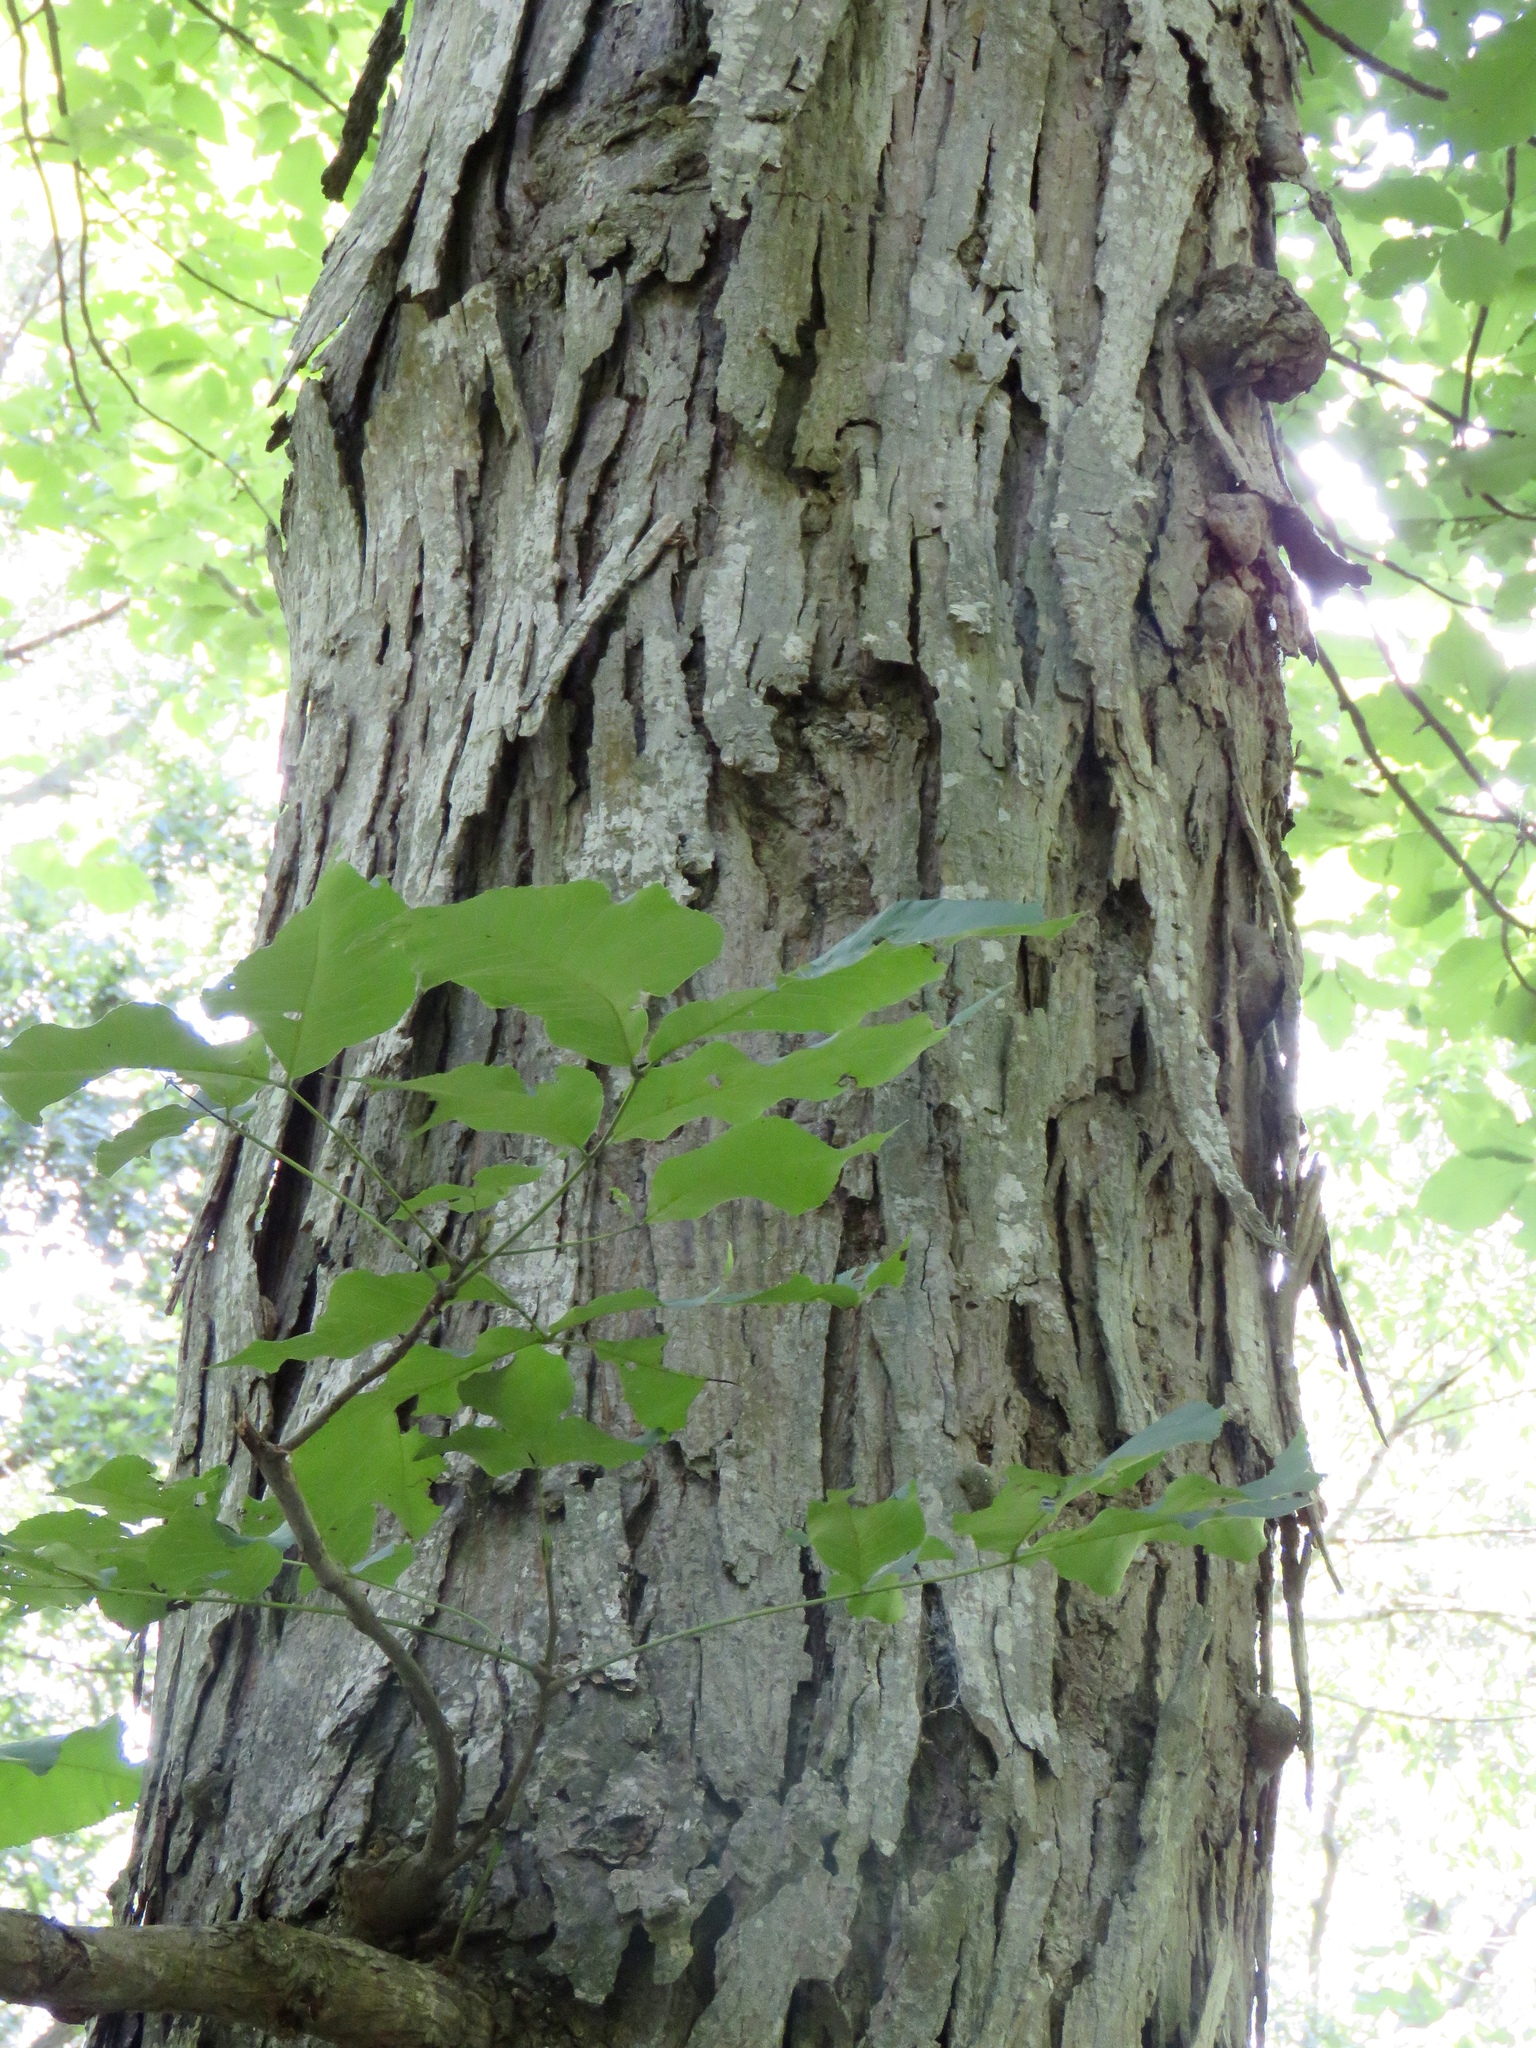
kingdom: Plantae
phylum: Tracheophyta
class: Magnoliopsida
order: Fagales
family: Juglandaceae
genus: Carya
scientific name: Carya ovata
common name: Shagbark hickory
